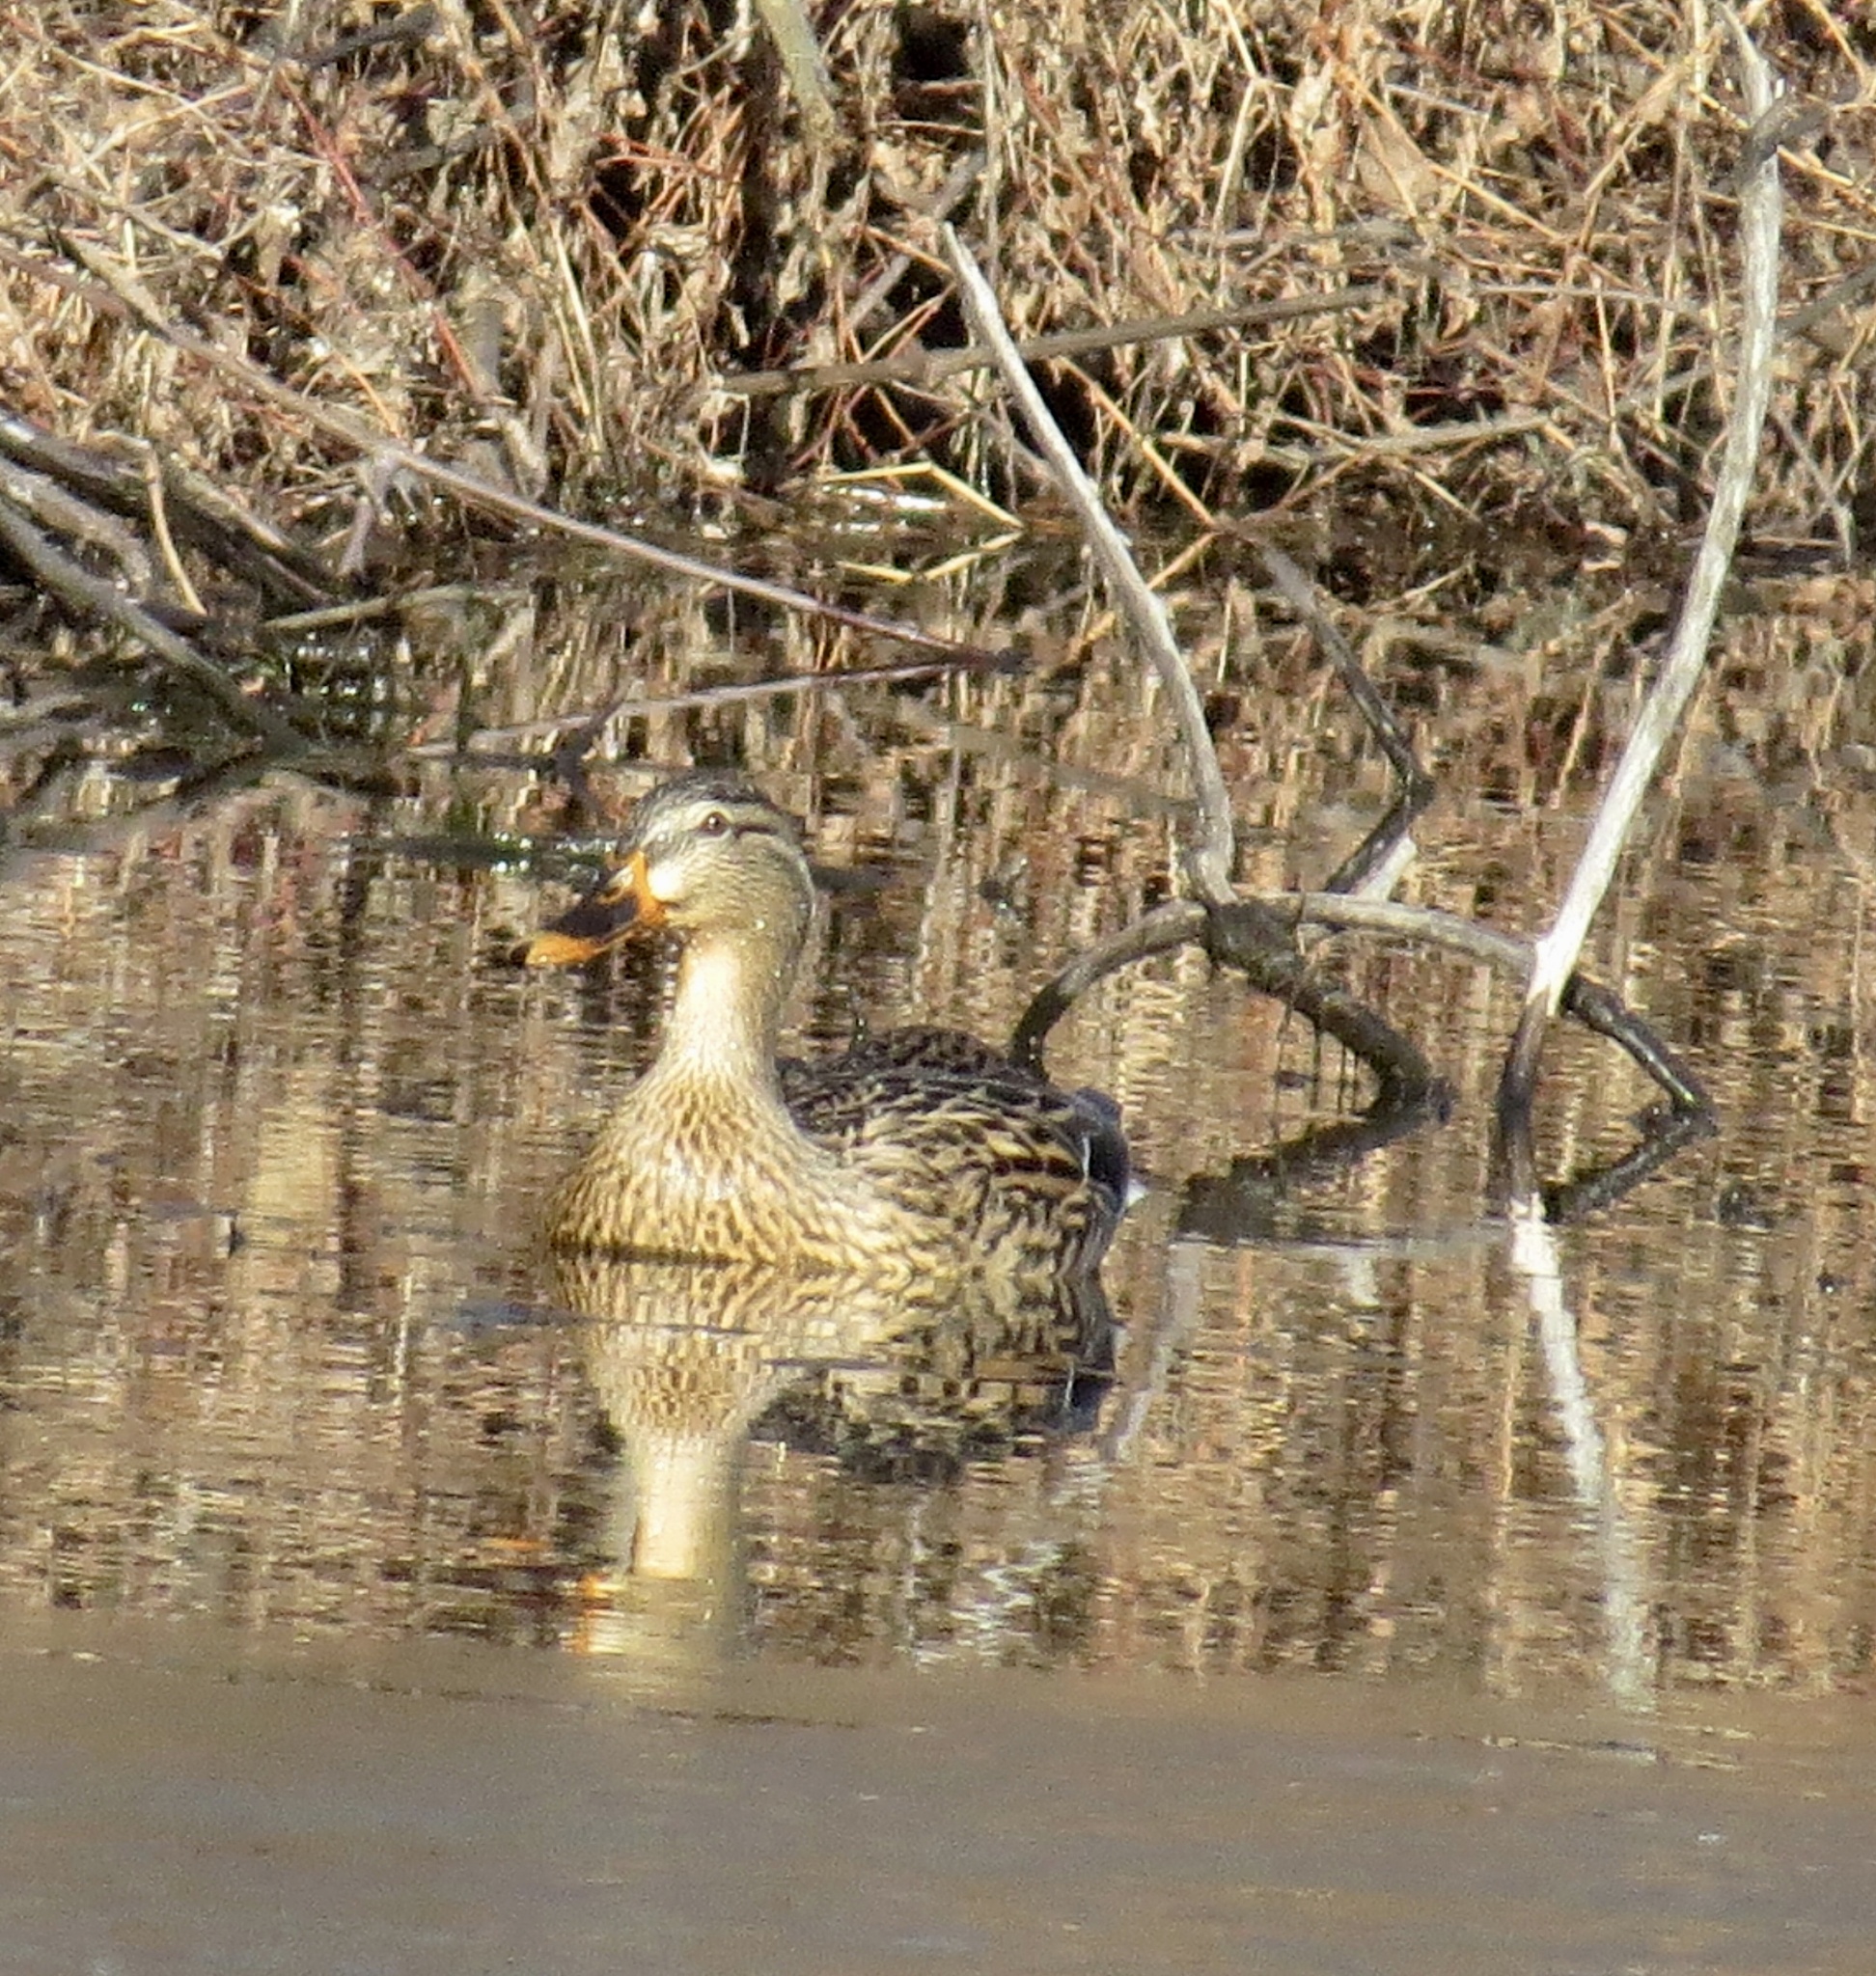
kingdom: Animalia
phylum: Chordata
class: Aves
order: Anseriformes
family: Anatidae
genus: Anas
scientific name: Anas platyrhynchos
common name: Mallard
